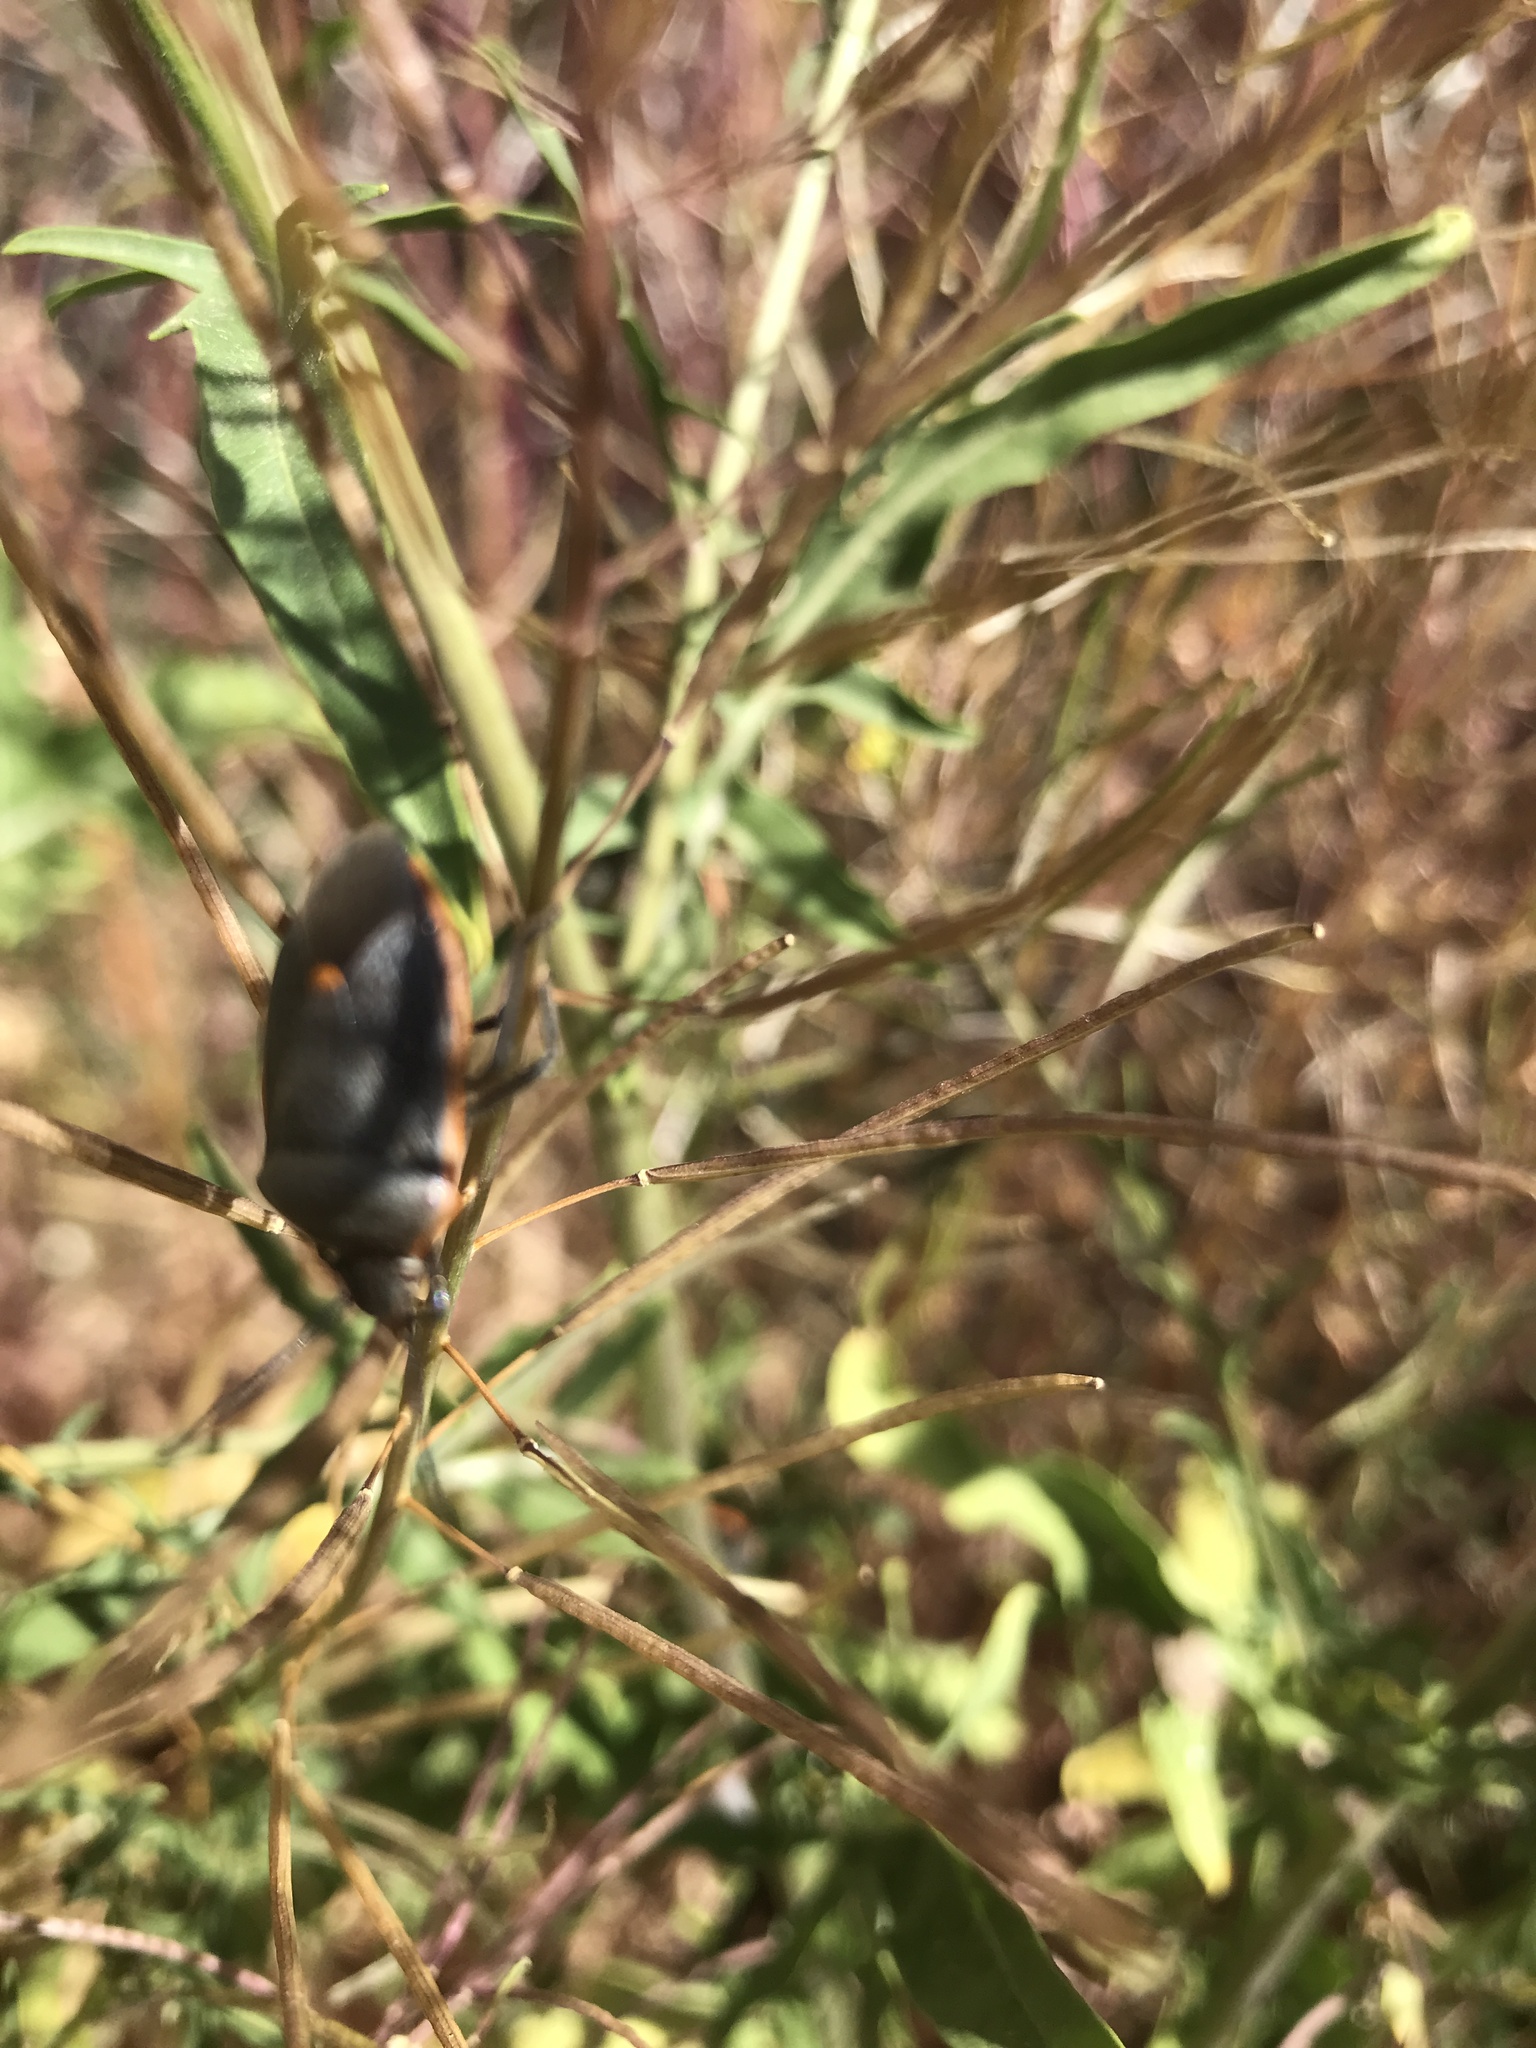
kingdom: Animalia
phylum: Arthropoda
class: Insecta
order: Hemiptera
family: Pentatomidae
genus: Chlorochroa
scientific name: Chlorochroa ligata
